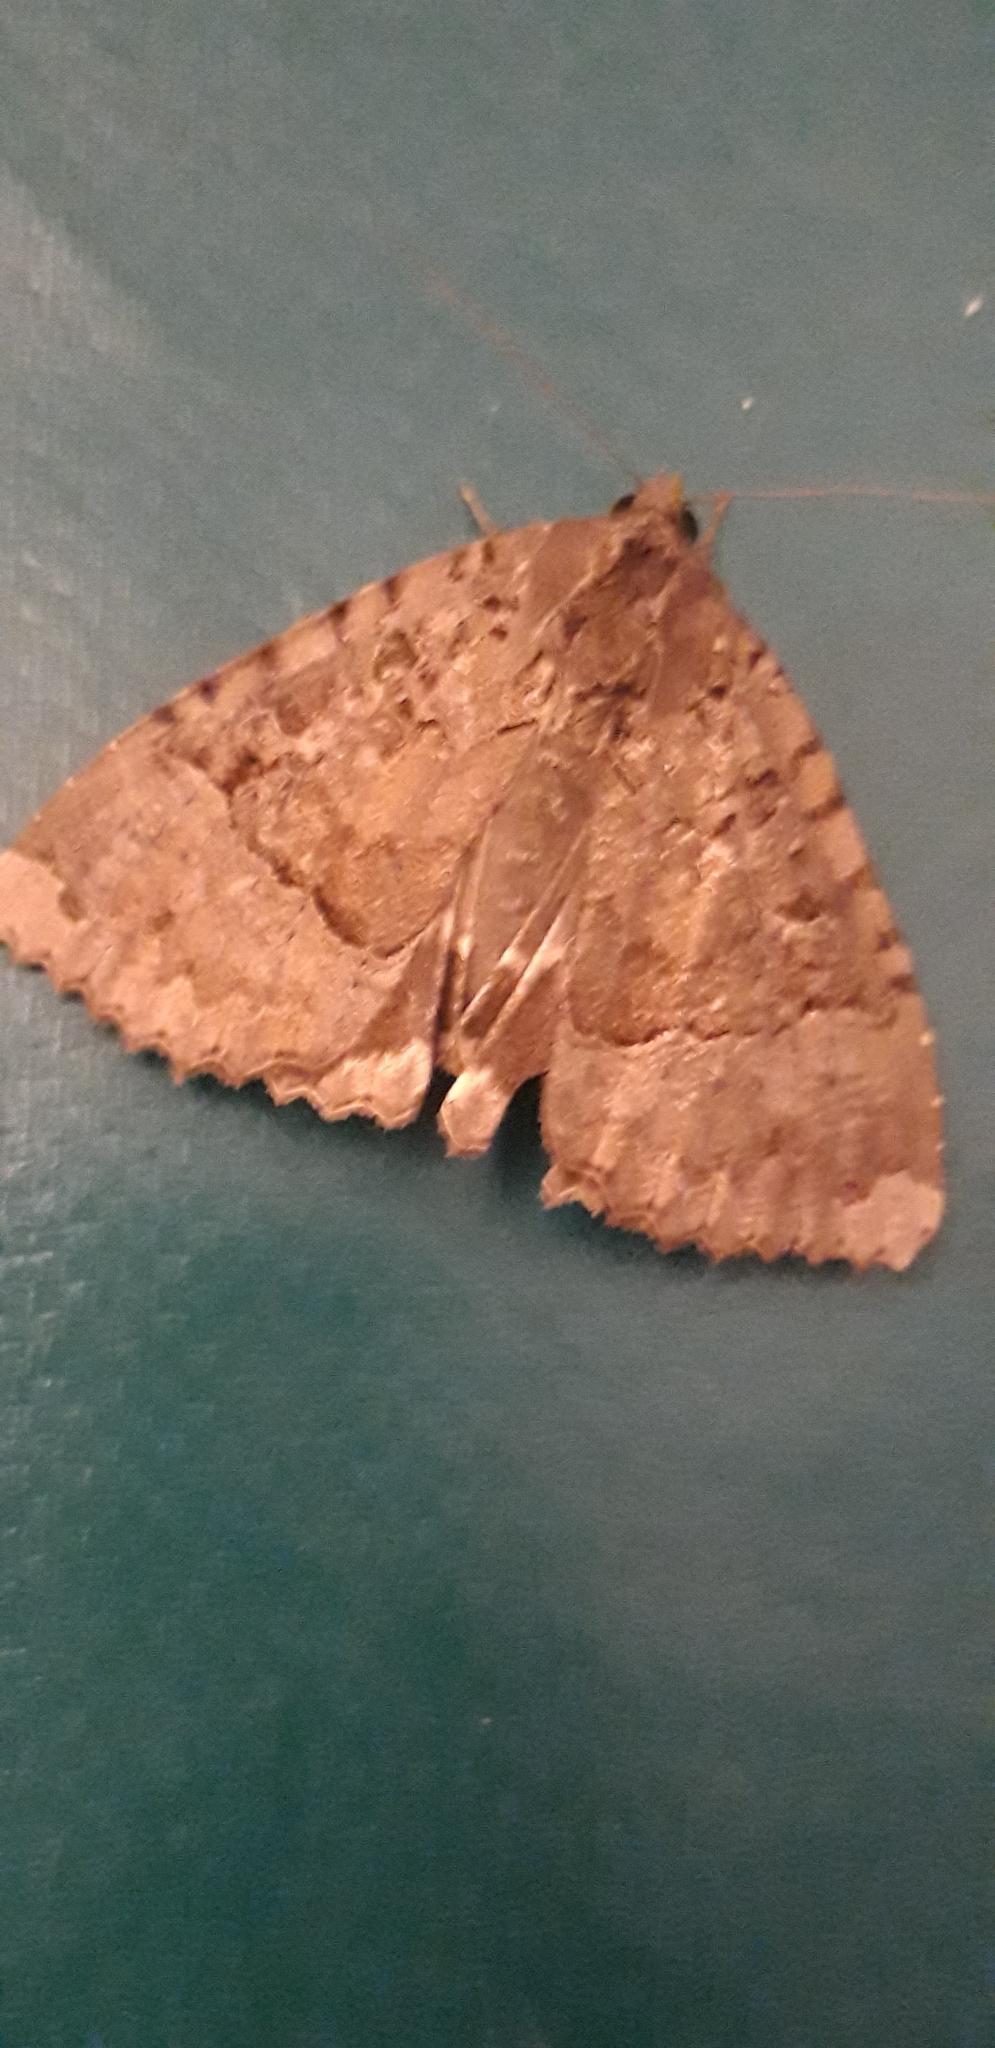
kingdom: Animalia
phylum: Arthropoda
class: Insecta
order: Lepidoptera
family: Noctuidae
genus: Mormo
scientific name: Mormo maura
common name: Old lady
